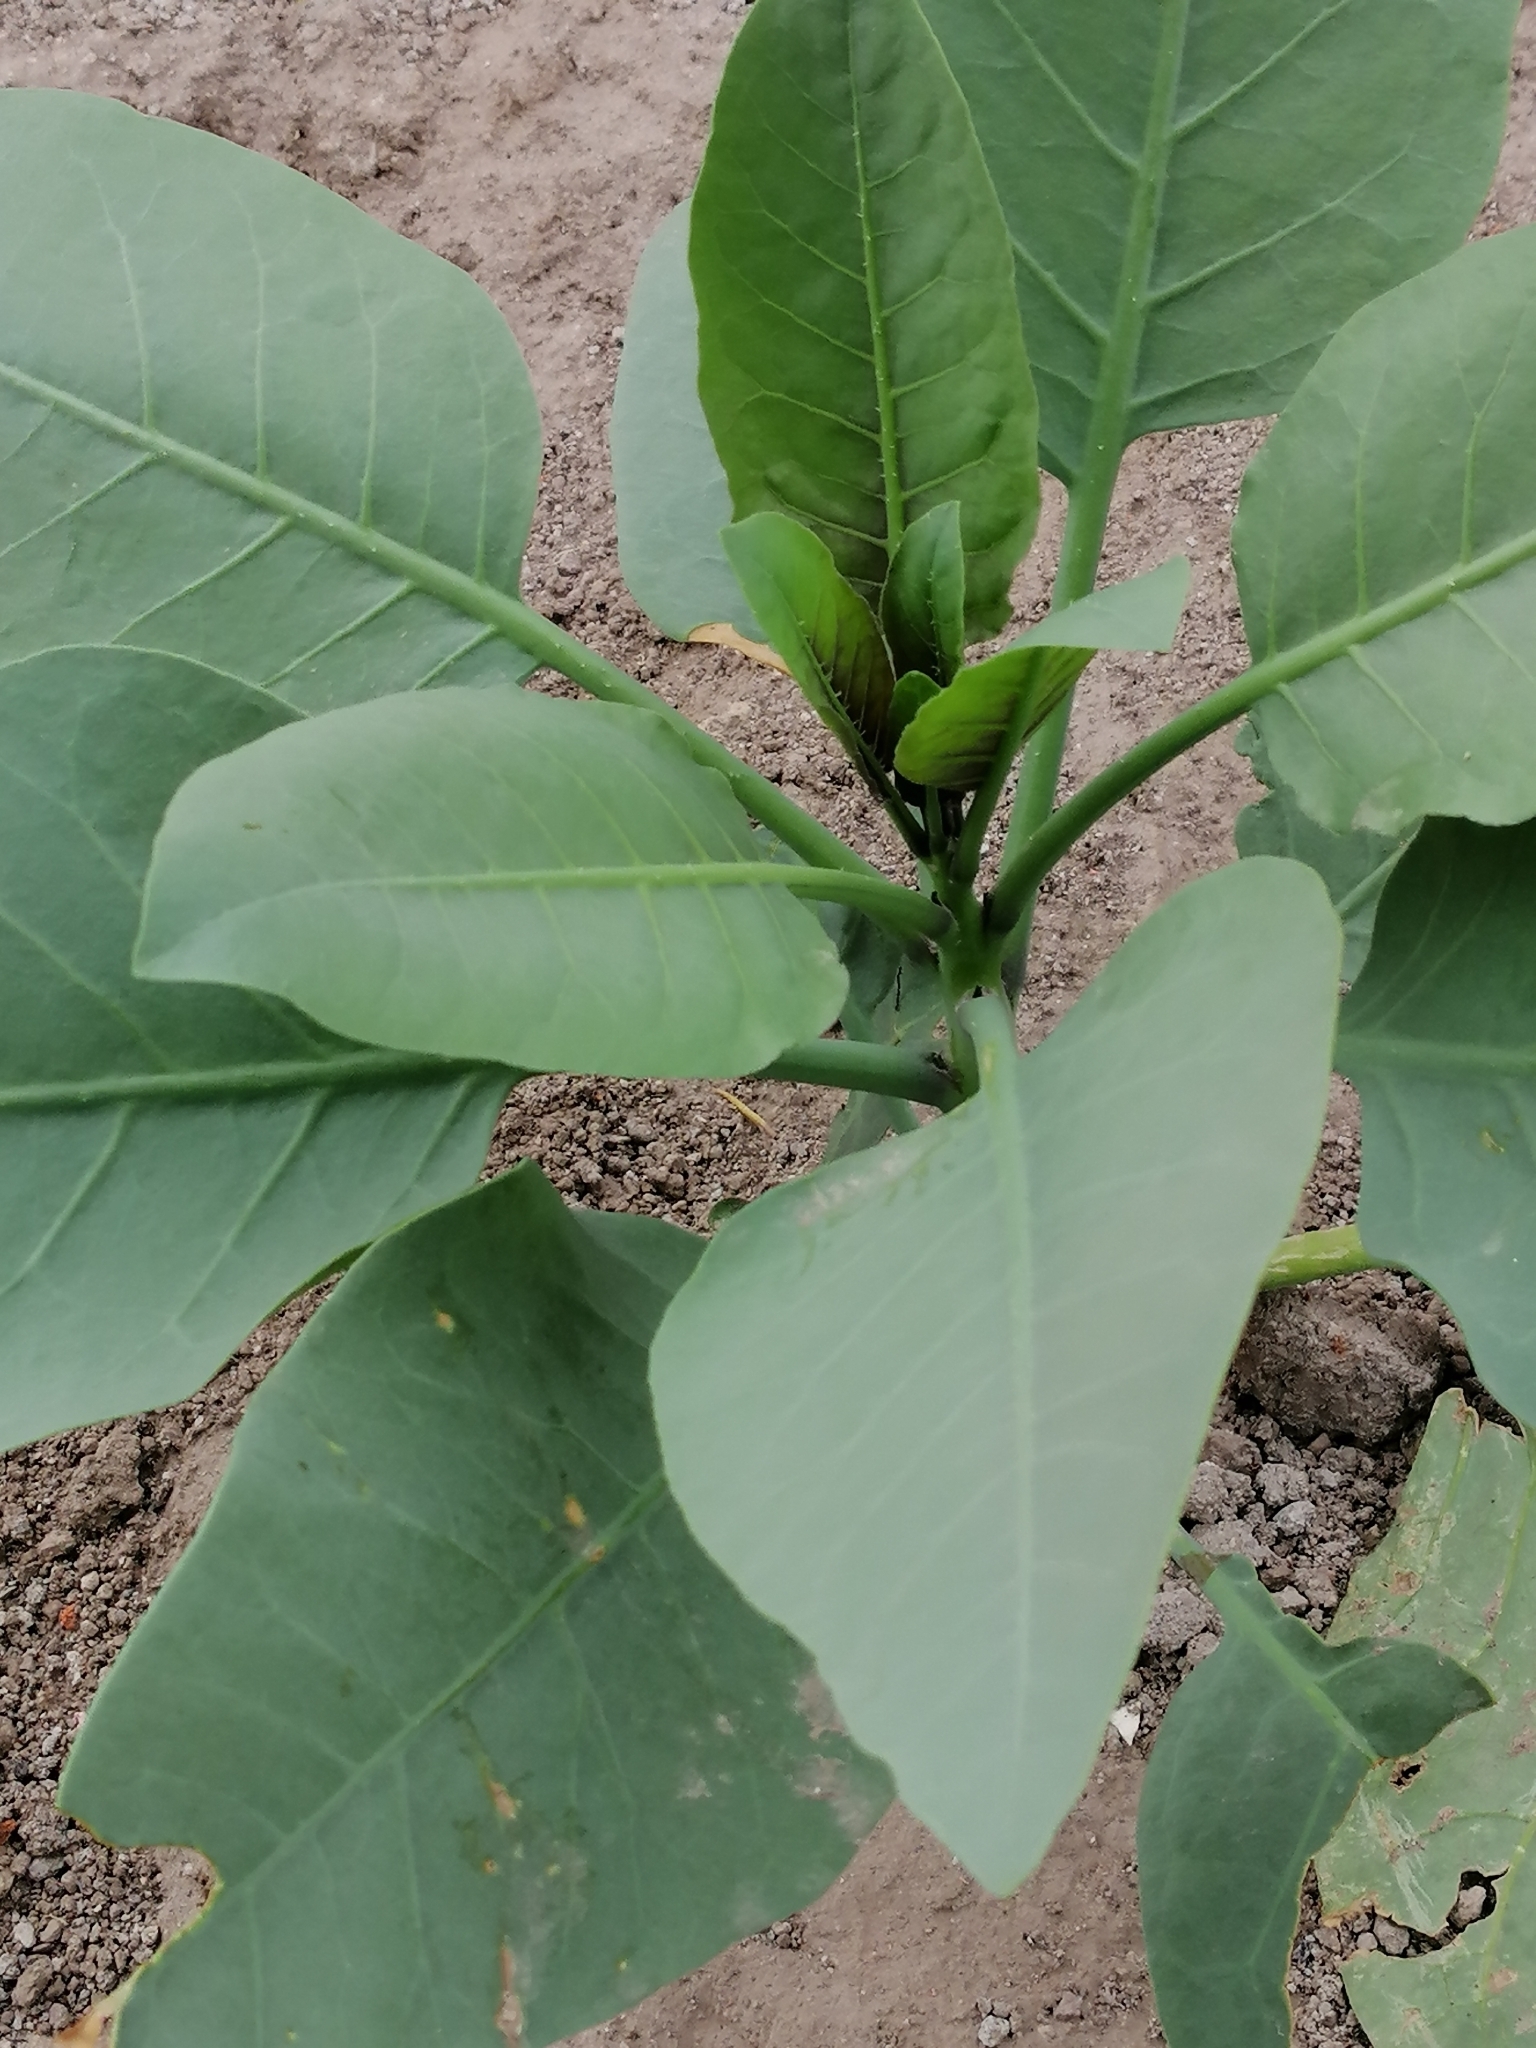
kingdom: Plantae
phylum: Tracheophyta
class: Magnoliopsida
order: Solanales
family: Solanaceae
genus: Nicotiana
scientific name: Nicotiana glauca
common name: Tree tobacco
